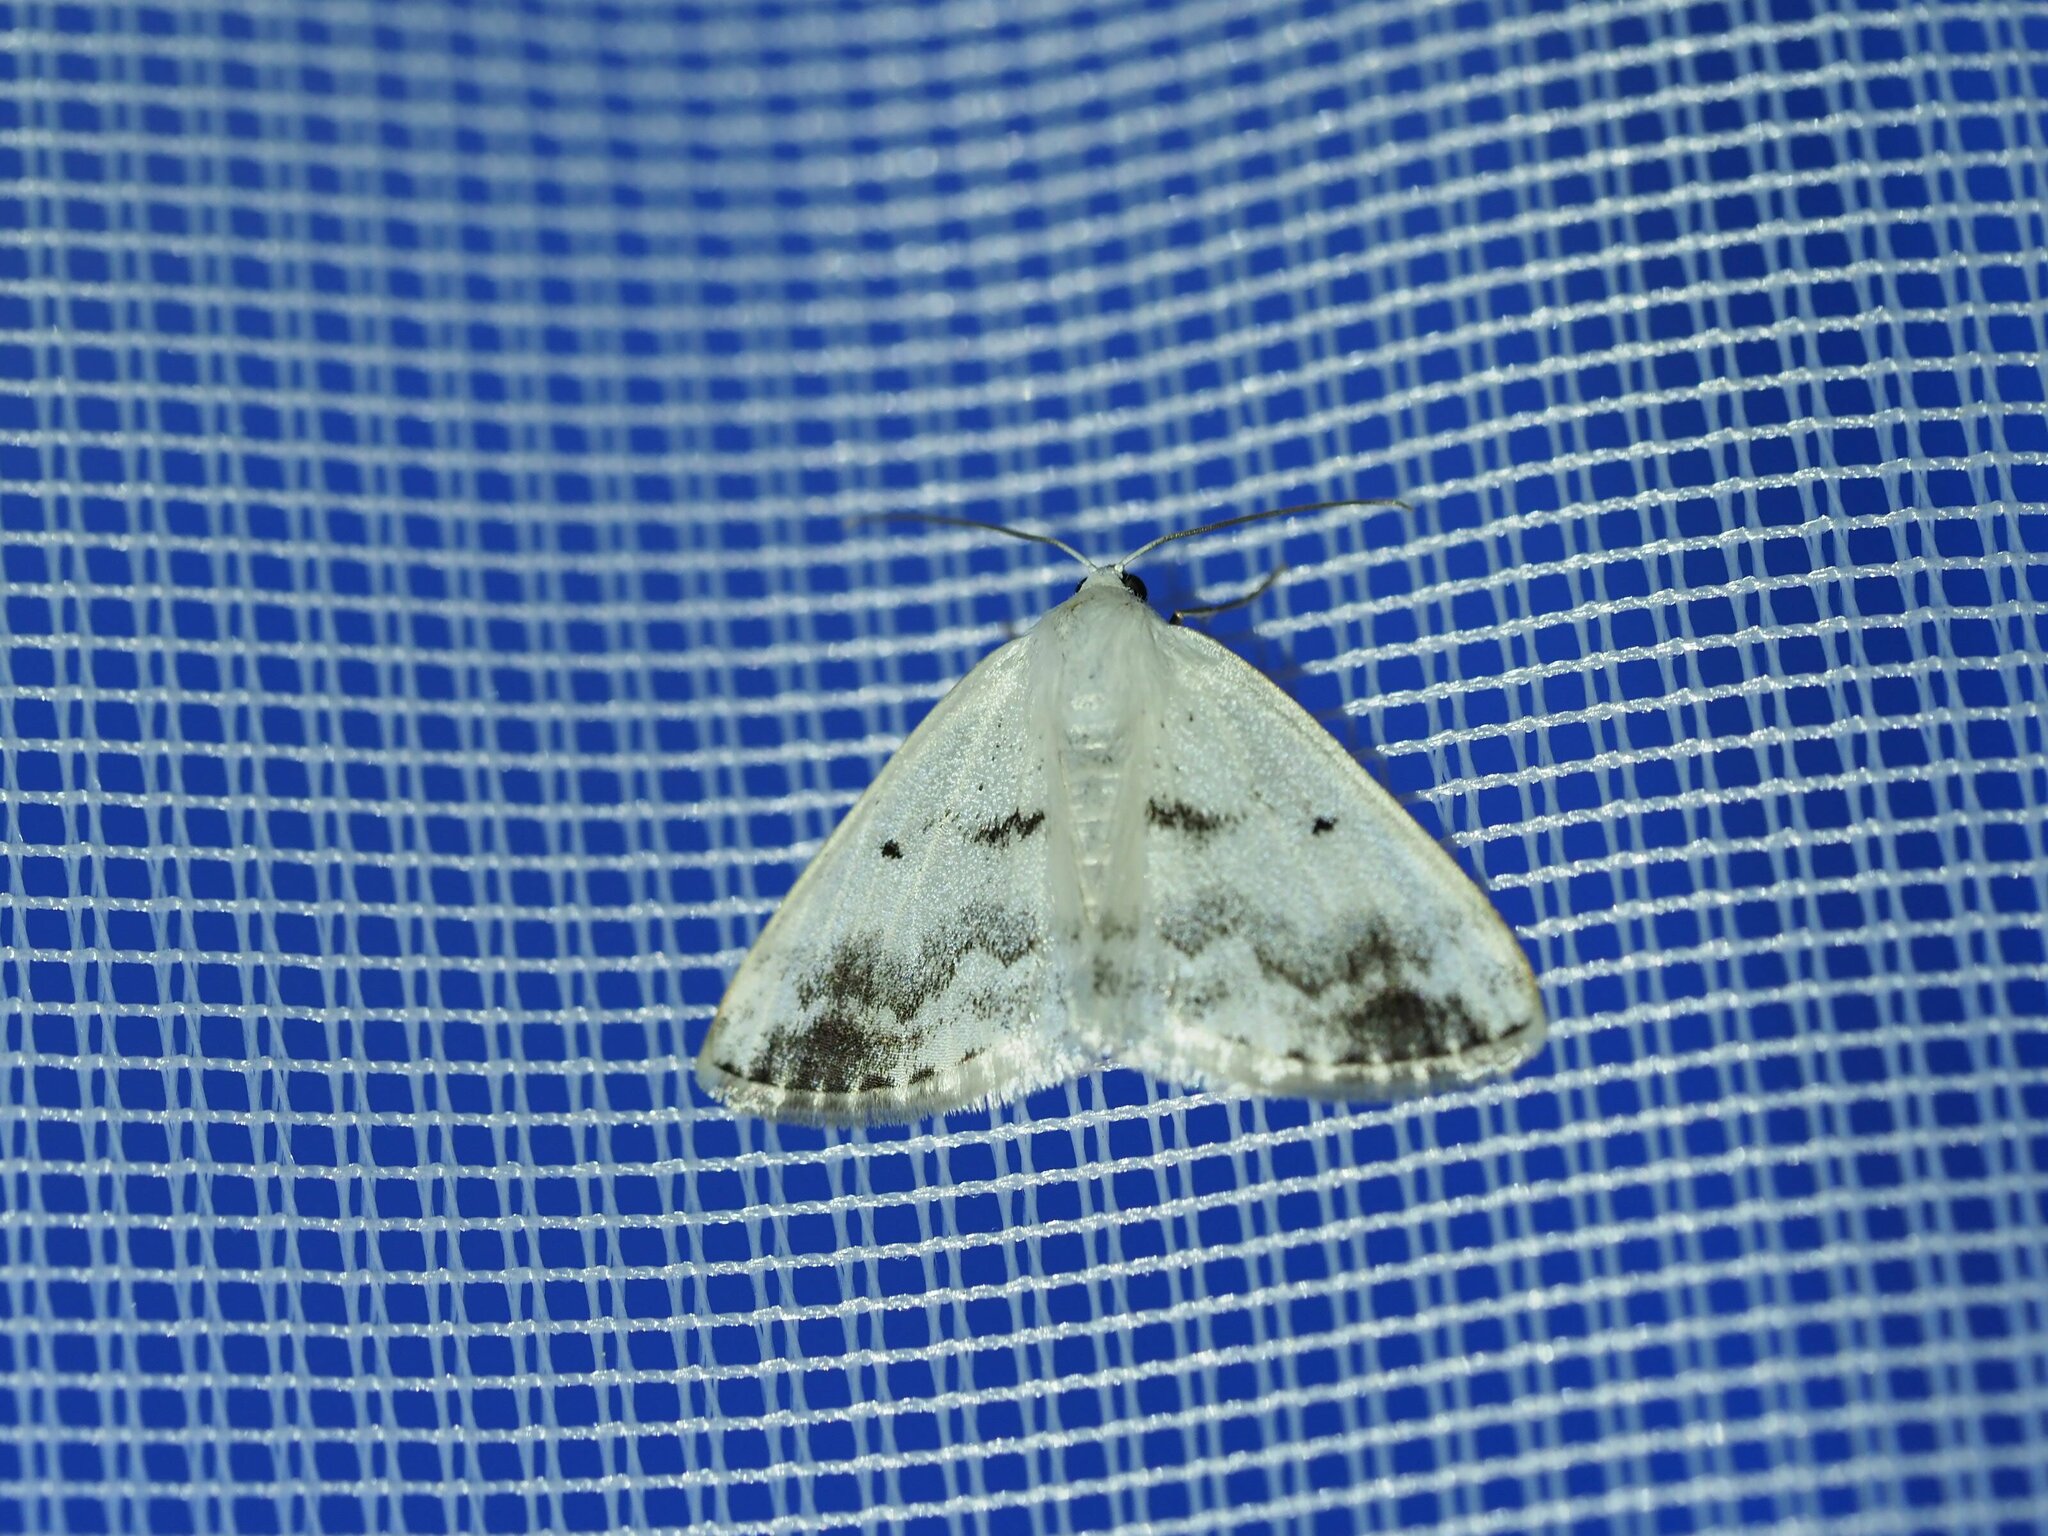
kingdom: Animalia
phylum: Arthropoda
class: Insecta
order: Lepidoptera
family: Geometridae
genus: Lomographa
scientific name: Lomographa temerata
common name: Clouded silver
